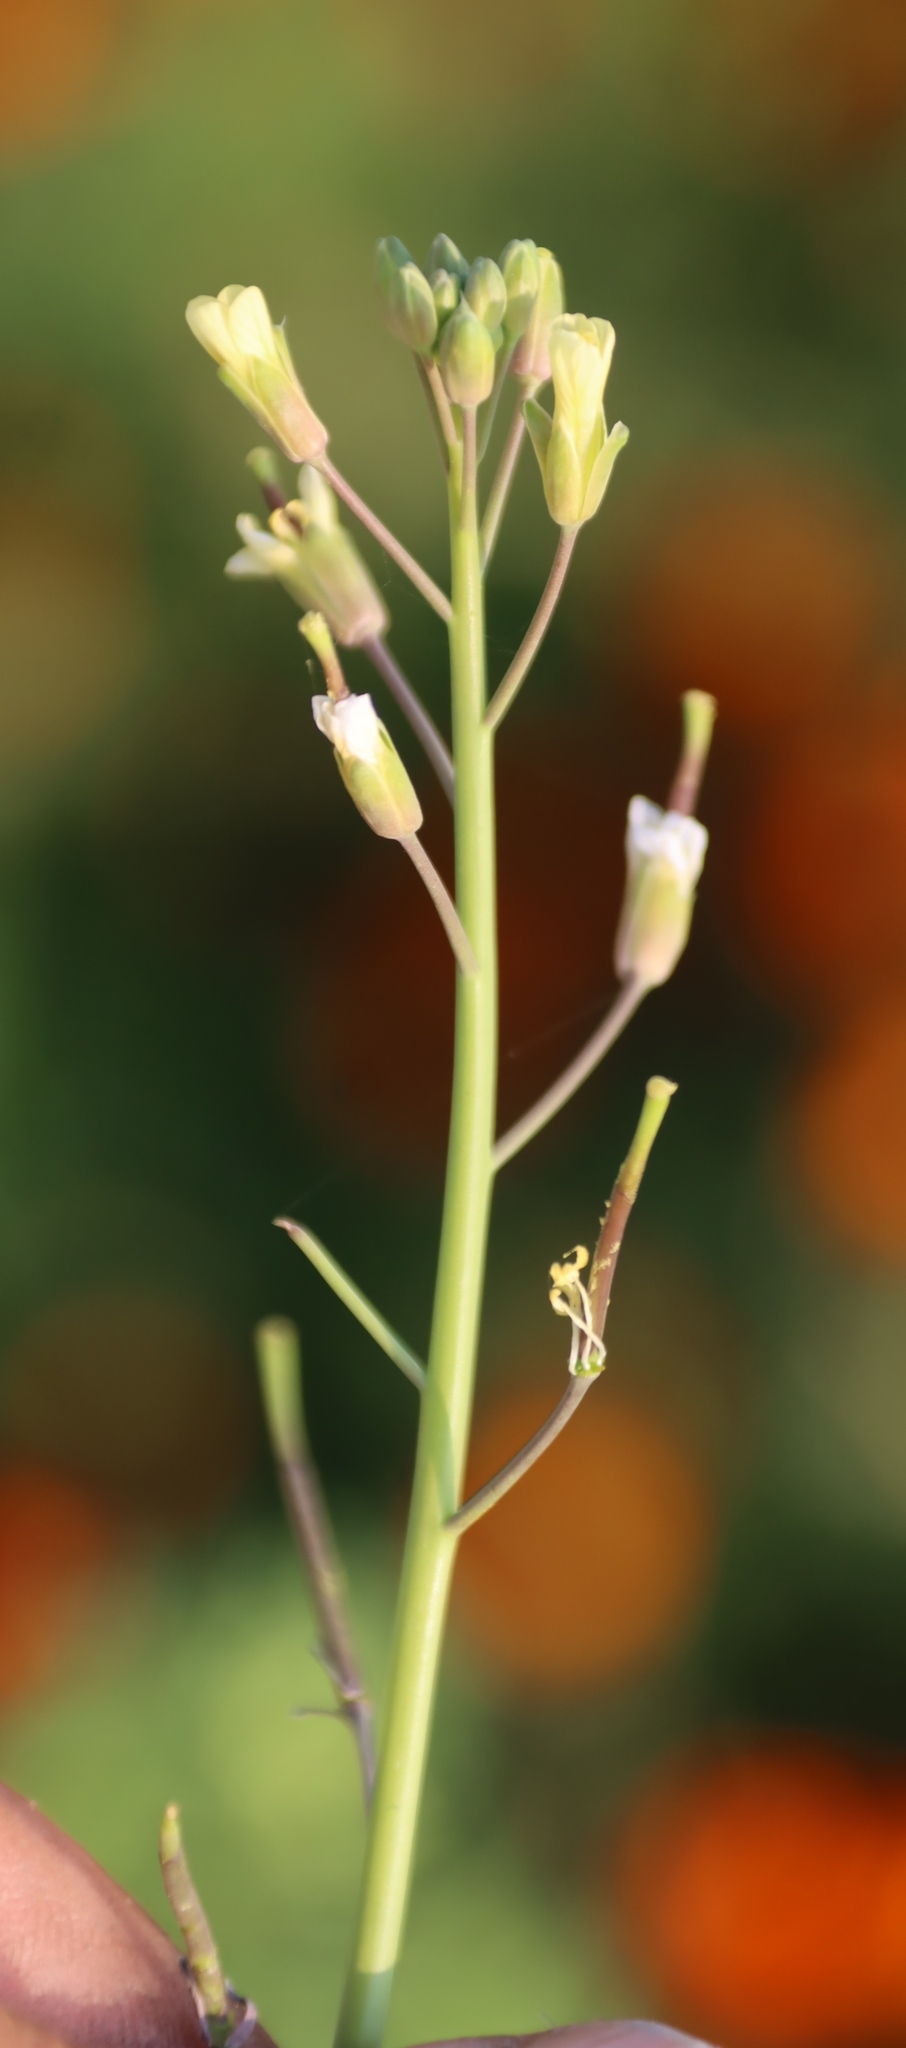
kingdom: Plantae
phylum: Tracheophyta
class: Magnoliopsida
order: Brassicales
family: Brassicaceae
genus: Brassica
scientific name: Brassica tournefortii
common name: Pale cabbage
